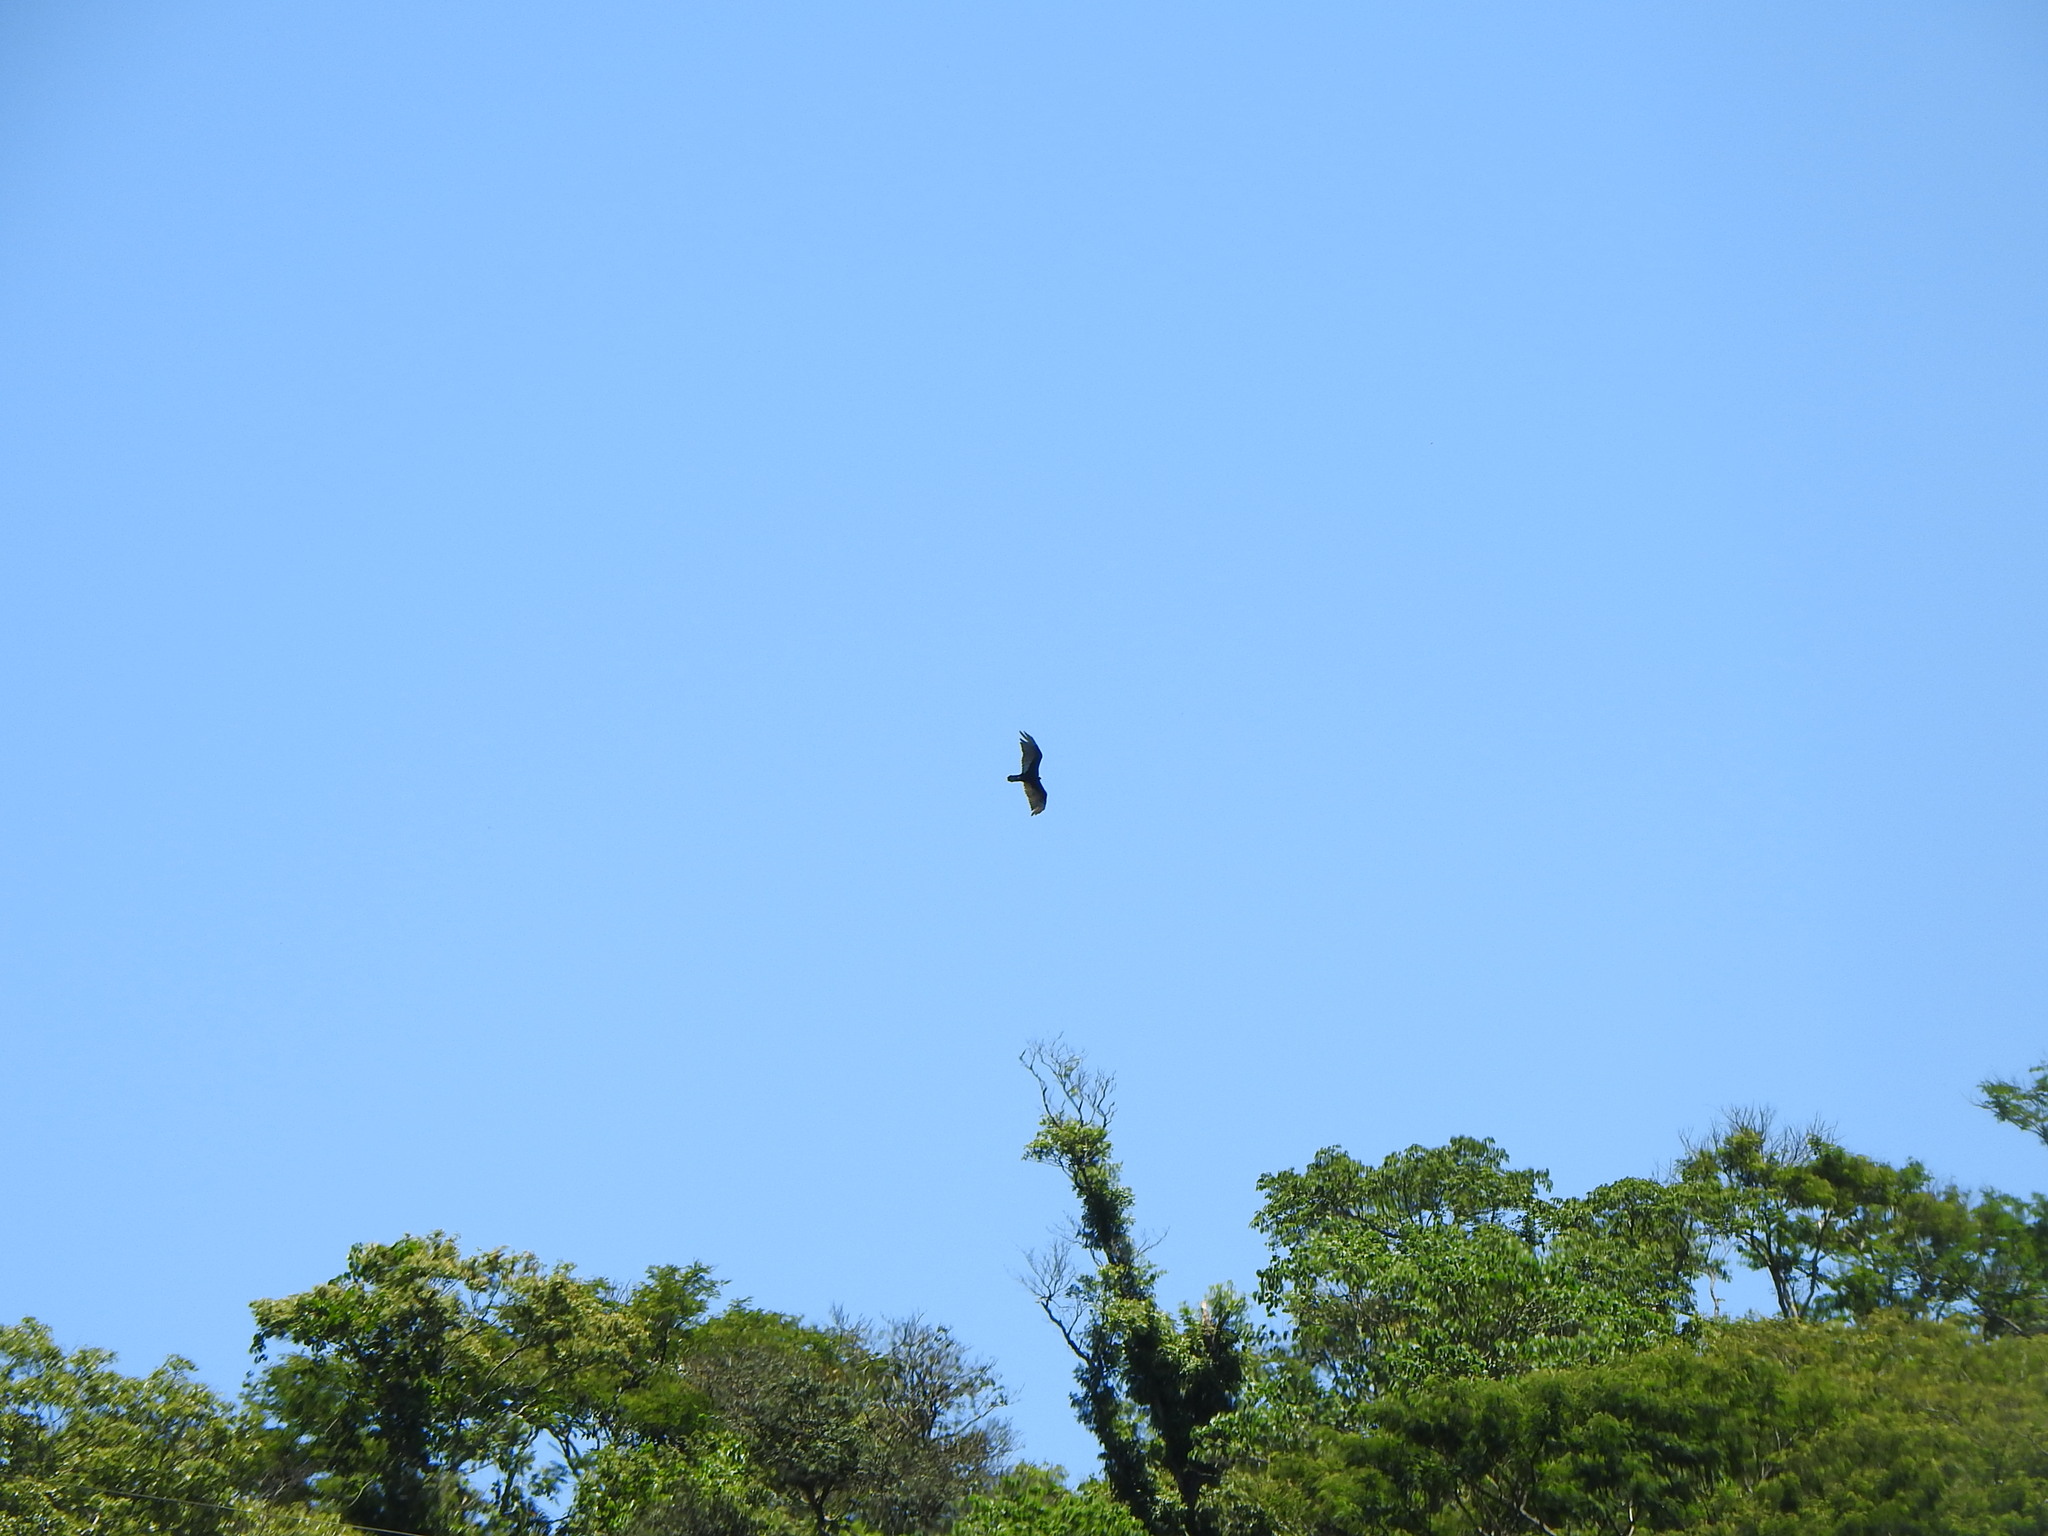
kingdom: Animalia
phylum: Chordata
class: Aves
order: Accipitriformes
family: Cathartidae
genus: Cathartes
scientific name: Cathartes aura
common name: Turkey vulture
